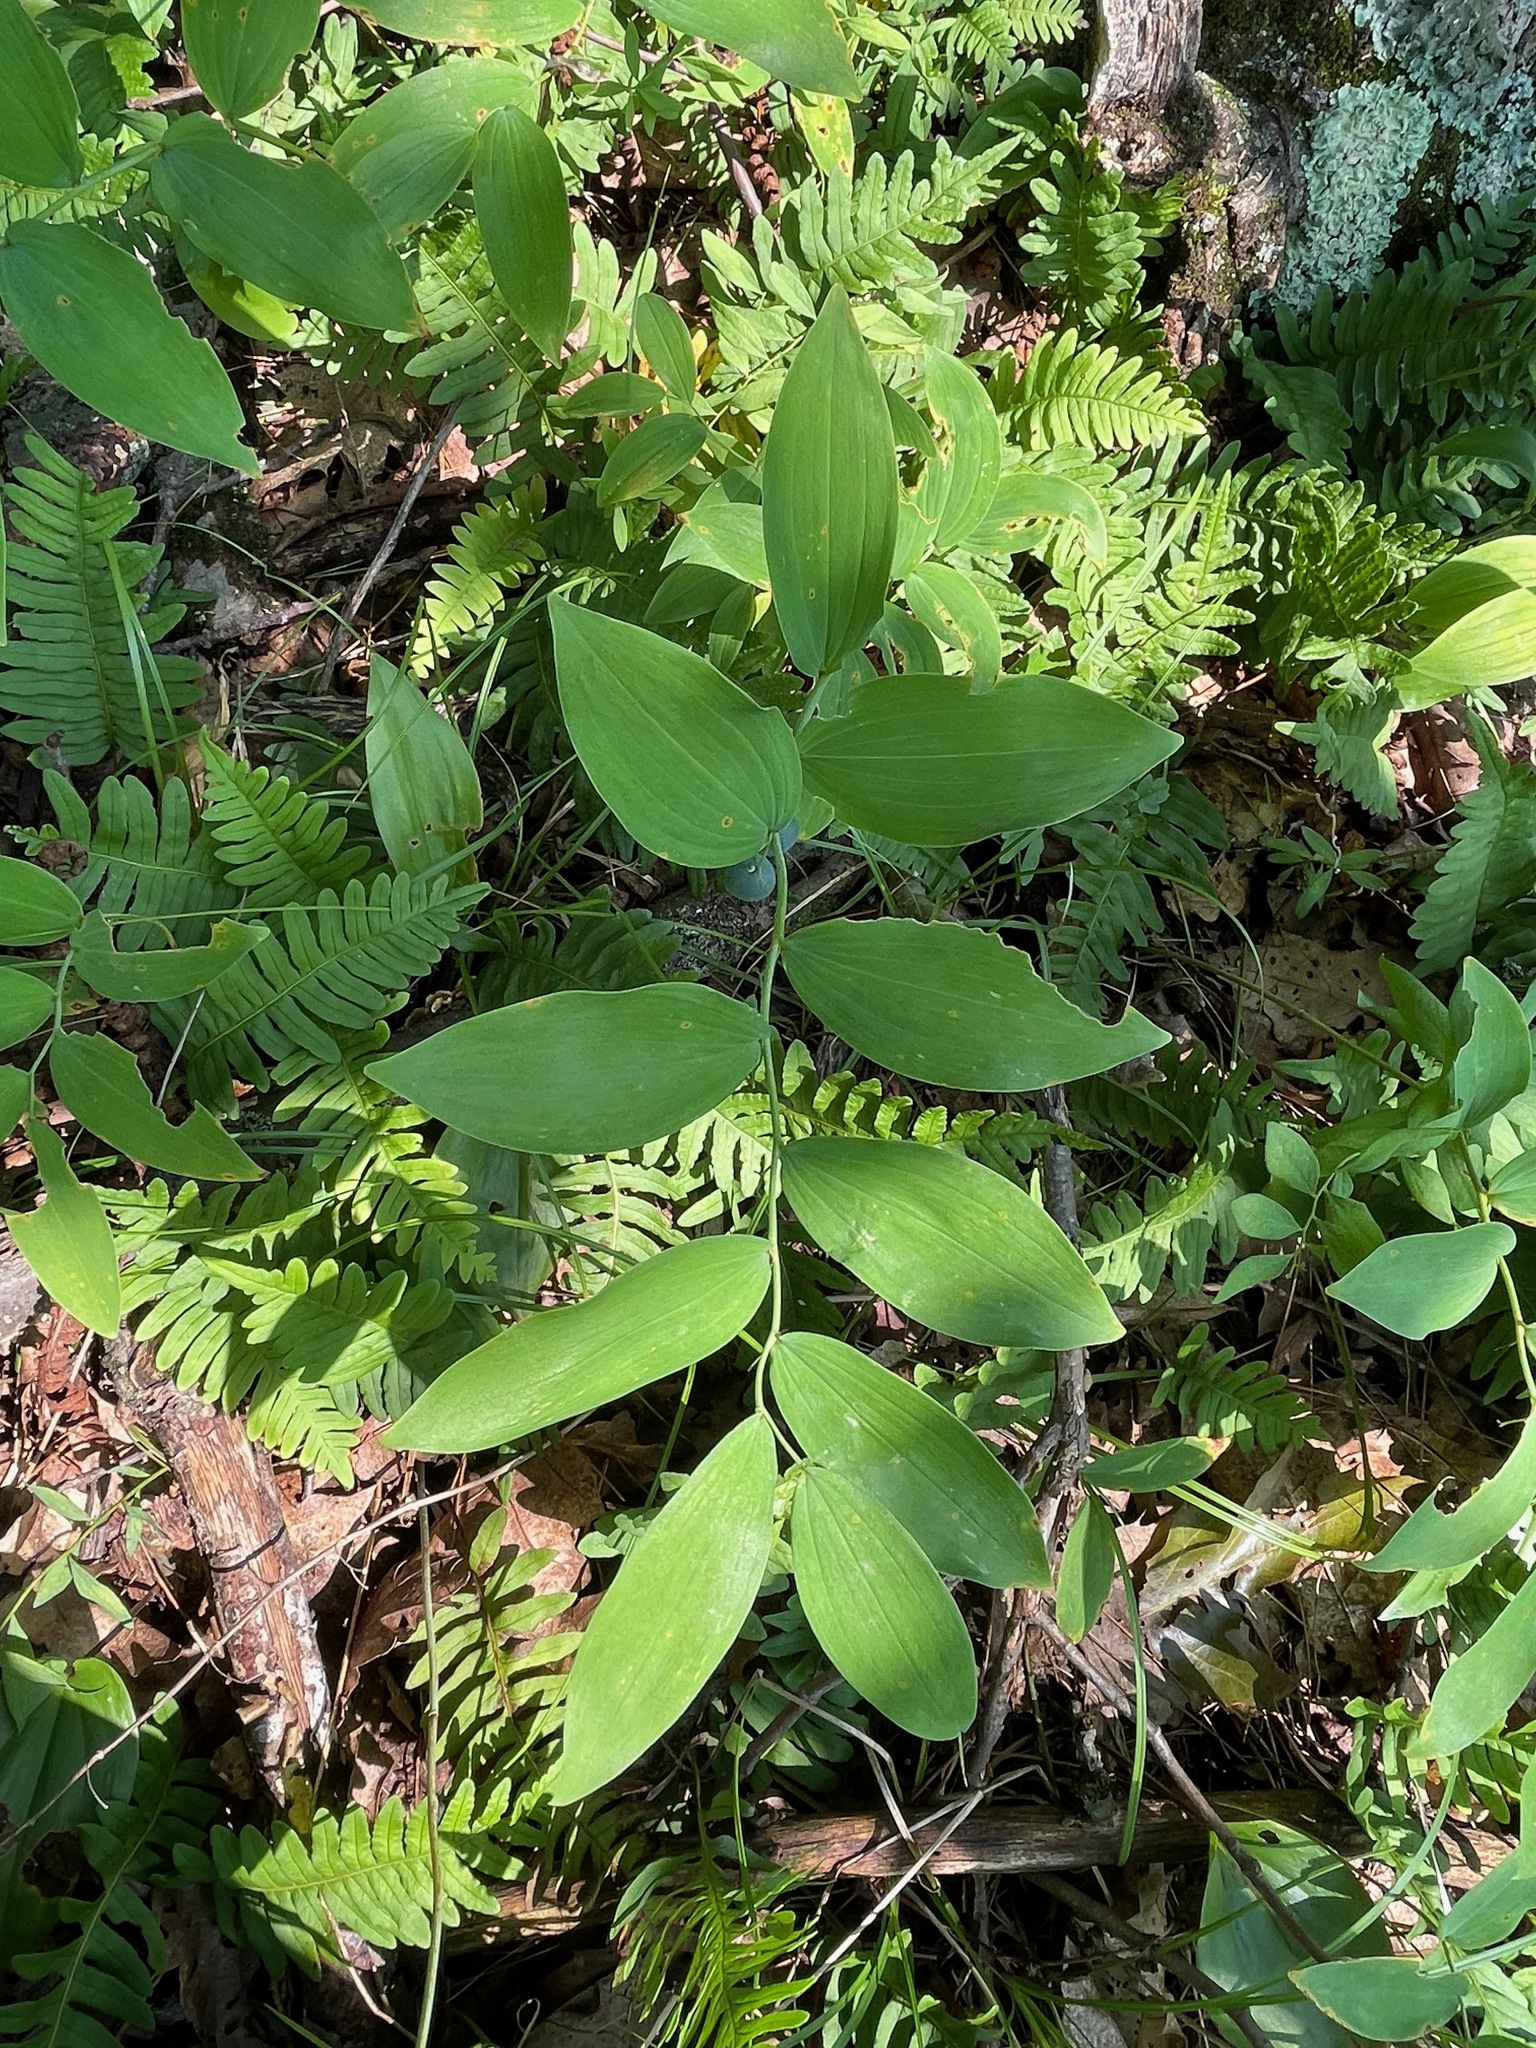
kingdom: Plantae
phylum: Tracheophyta
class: Liliopsida
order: Asparagales
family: Asparagaceae
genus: Polygonatum
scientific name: Polygonatum pubescens
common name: Downy solomon's seal
